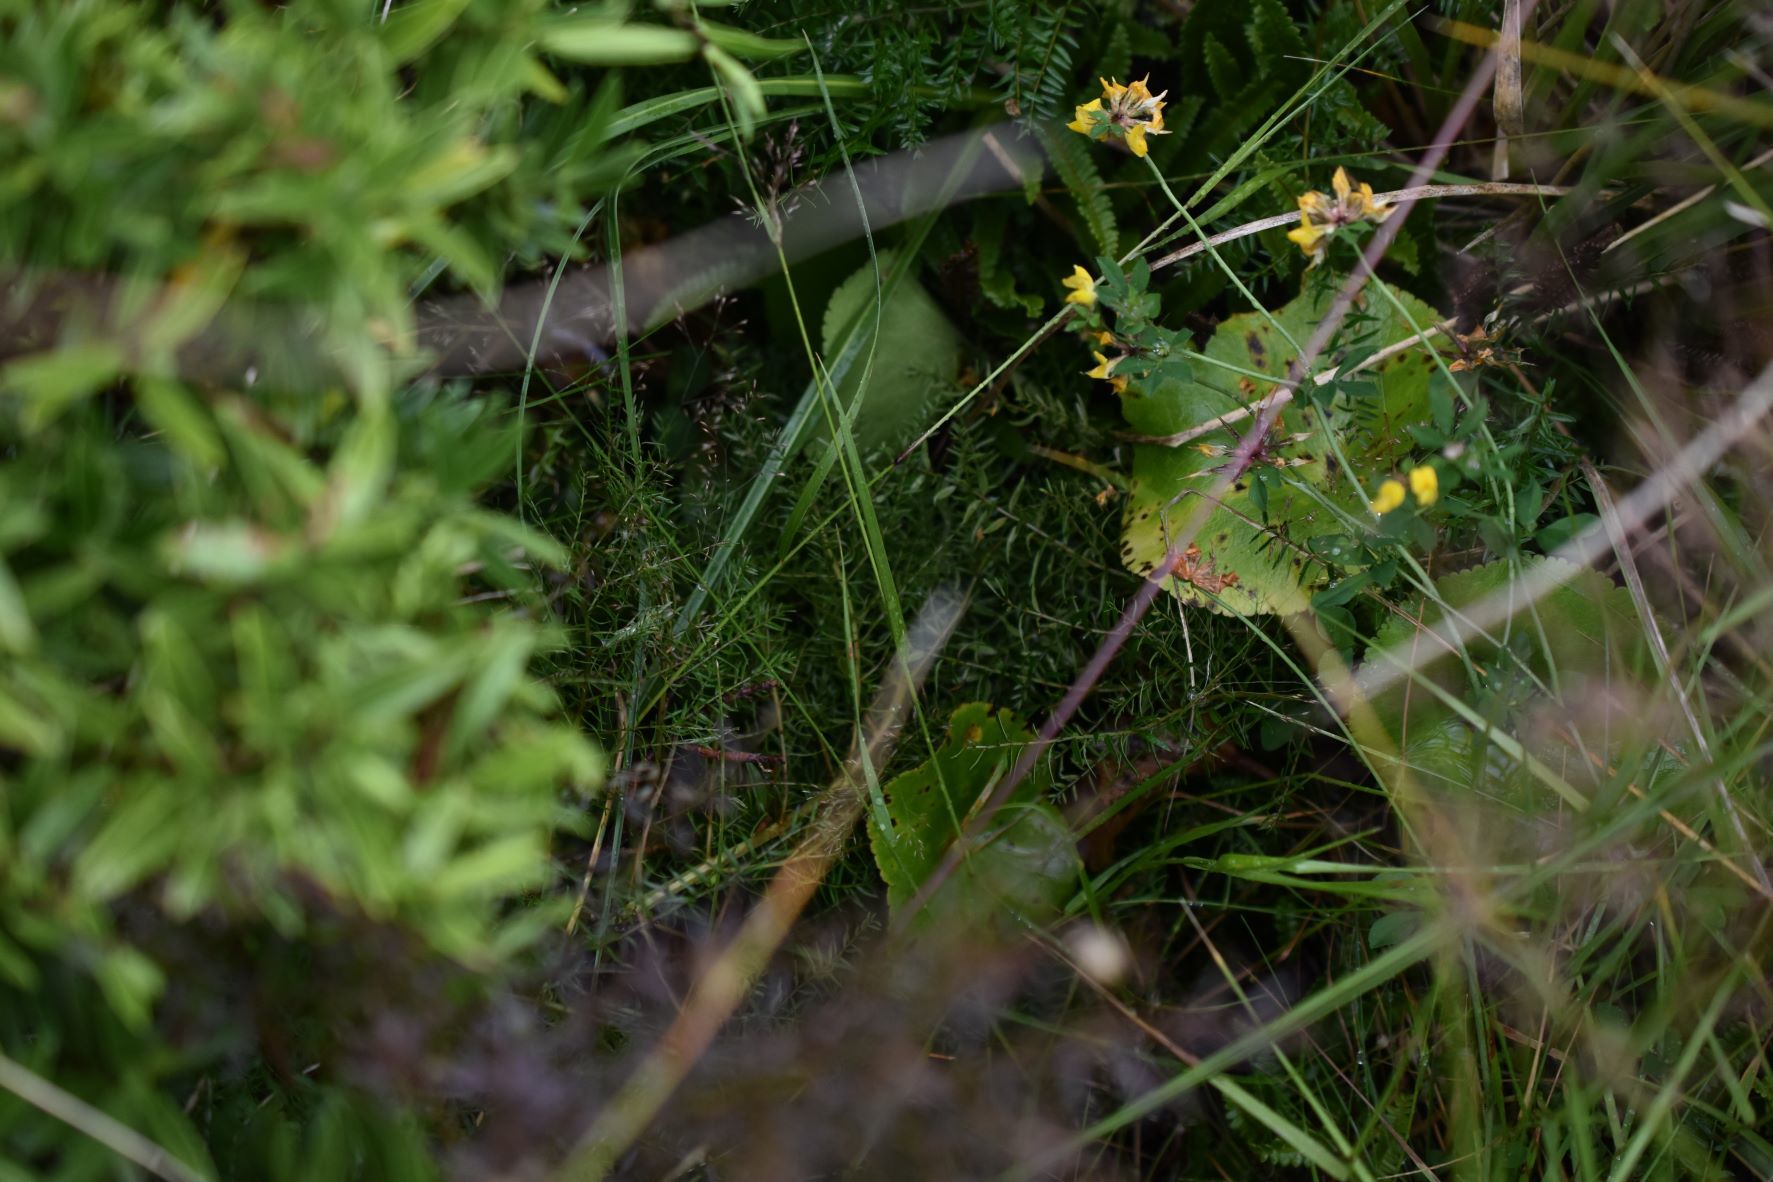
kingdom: Plantae
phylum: Tracheophyta
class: Magnoliopsida
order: Ranunculales
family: Ranunculaceae
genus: Ranunculus
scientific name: Ranunculus lyallii
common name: Mountain-lily
